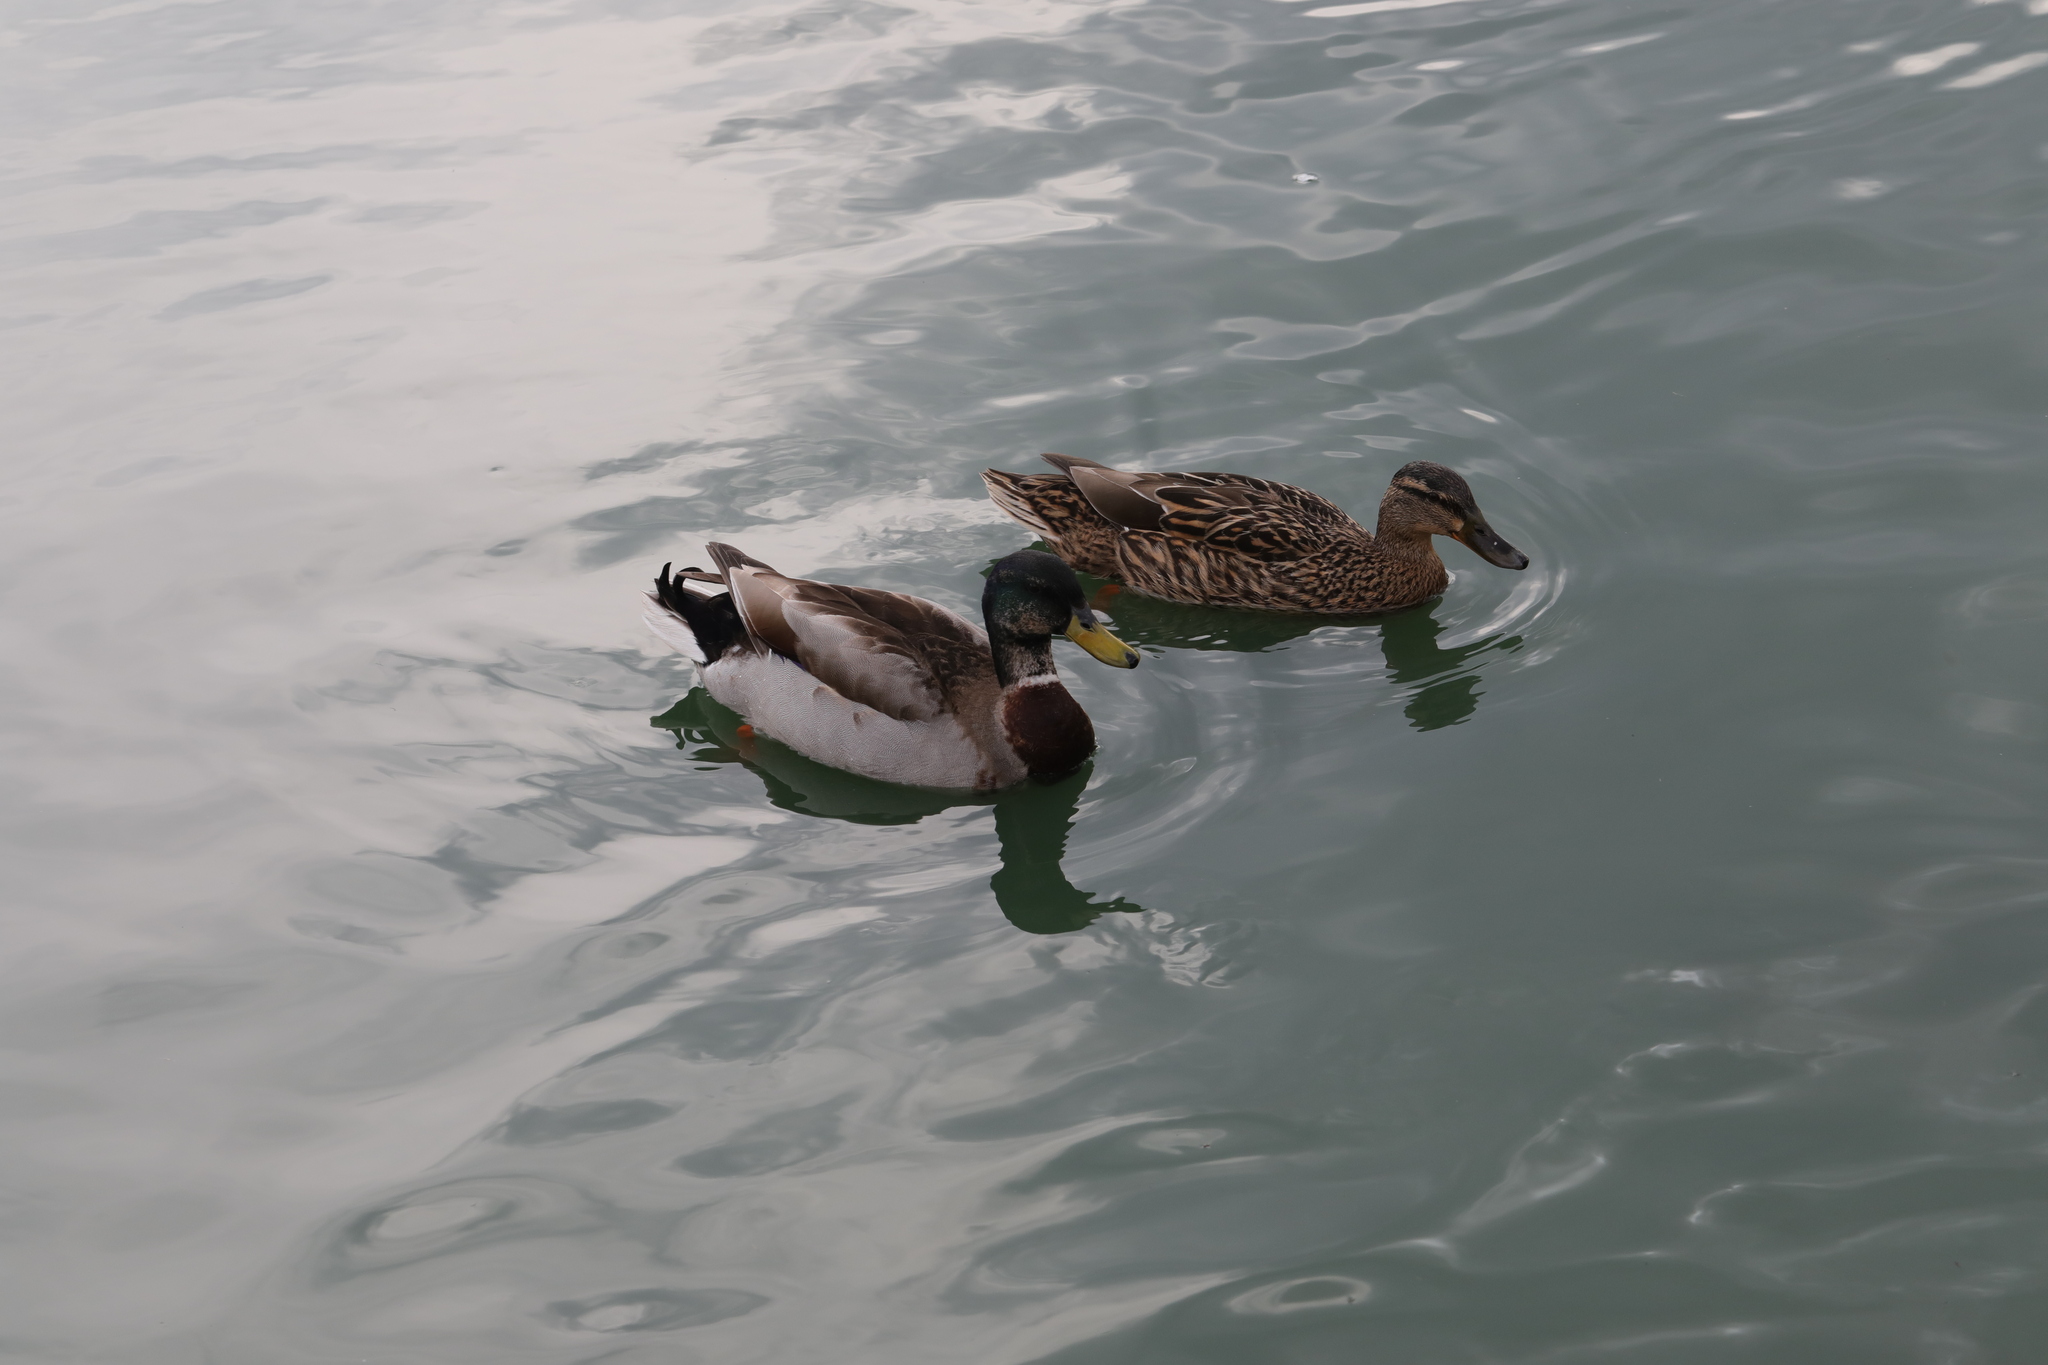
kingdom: Animalia
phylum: Chordata
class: Aves
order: Anseriformes
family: Anatidae
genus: Anas
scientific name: Anas platyrhynchos
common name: Mallard
